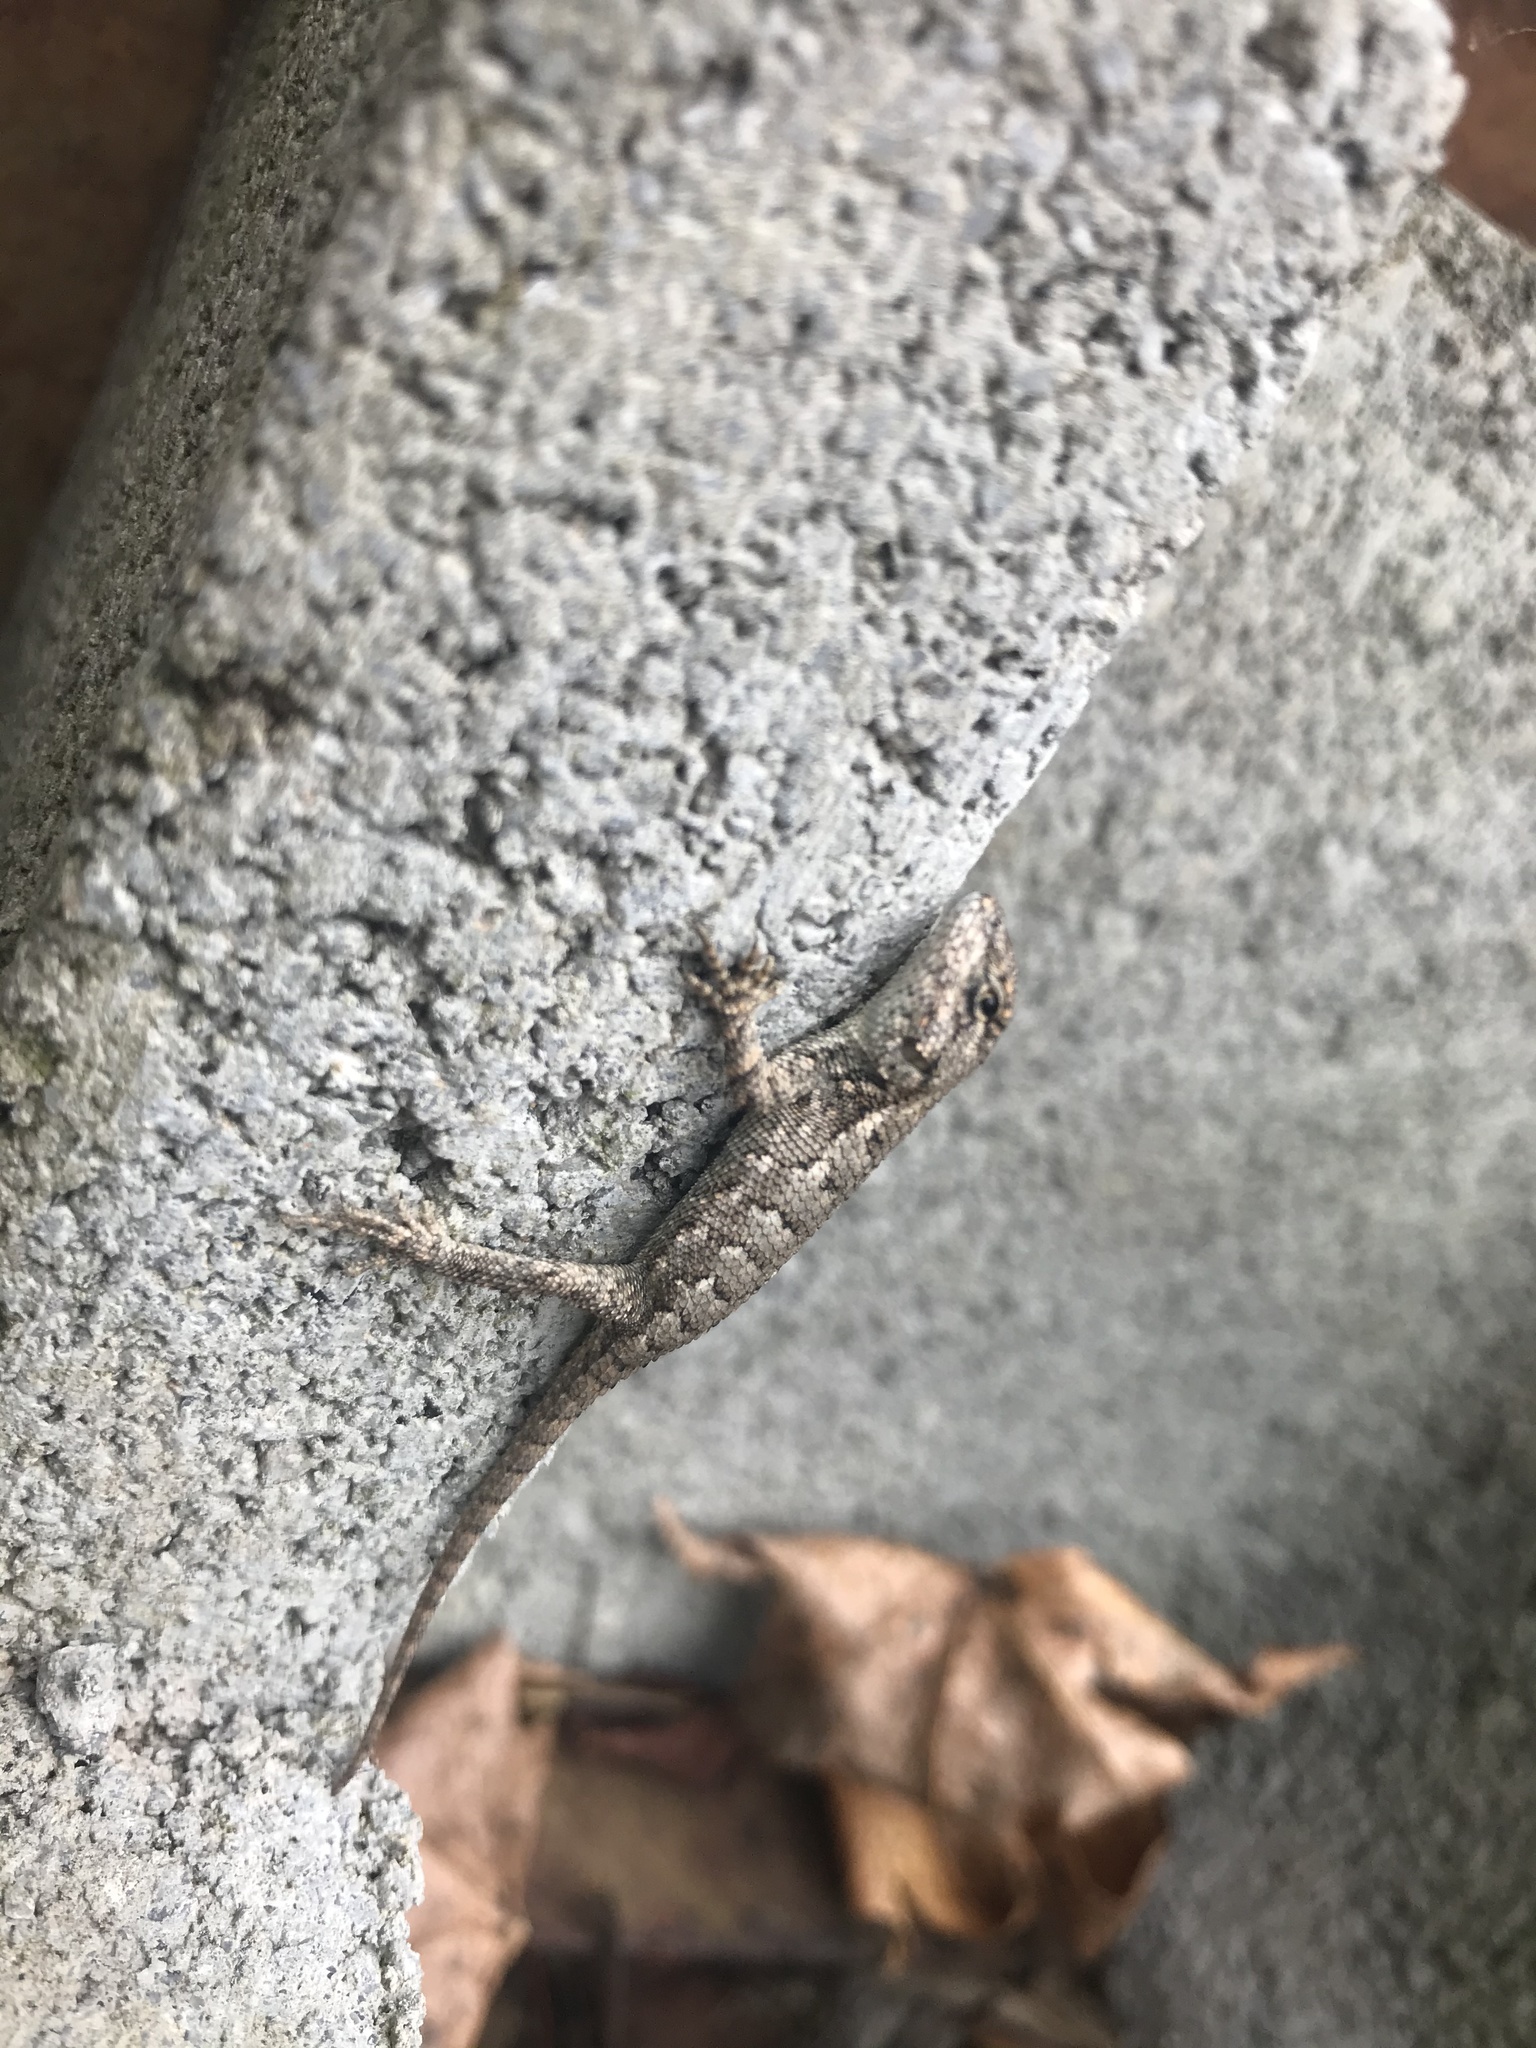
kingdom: Animalia
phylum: Chordata
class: Squamata
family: Phrynosomatidae
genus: Sceloporus
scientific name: Sceloporus undulatus
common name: Eastern fence lizard
